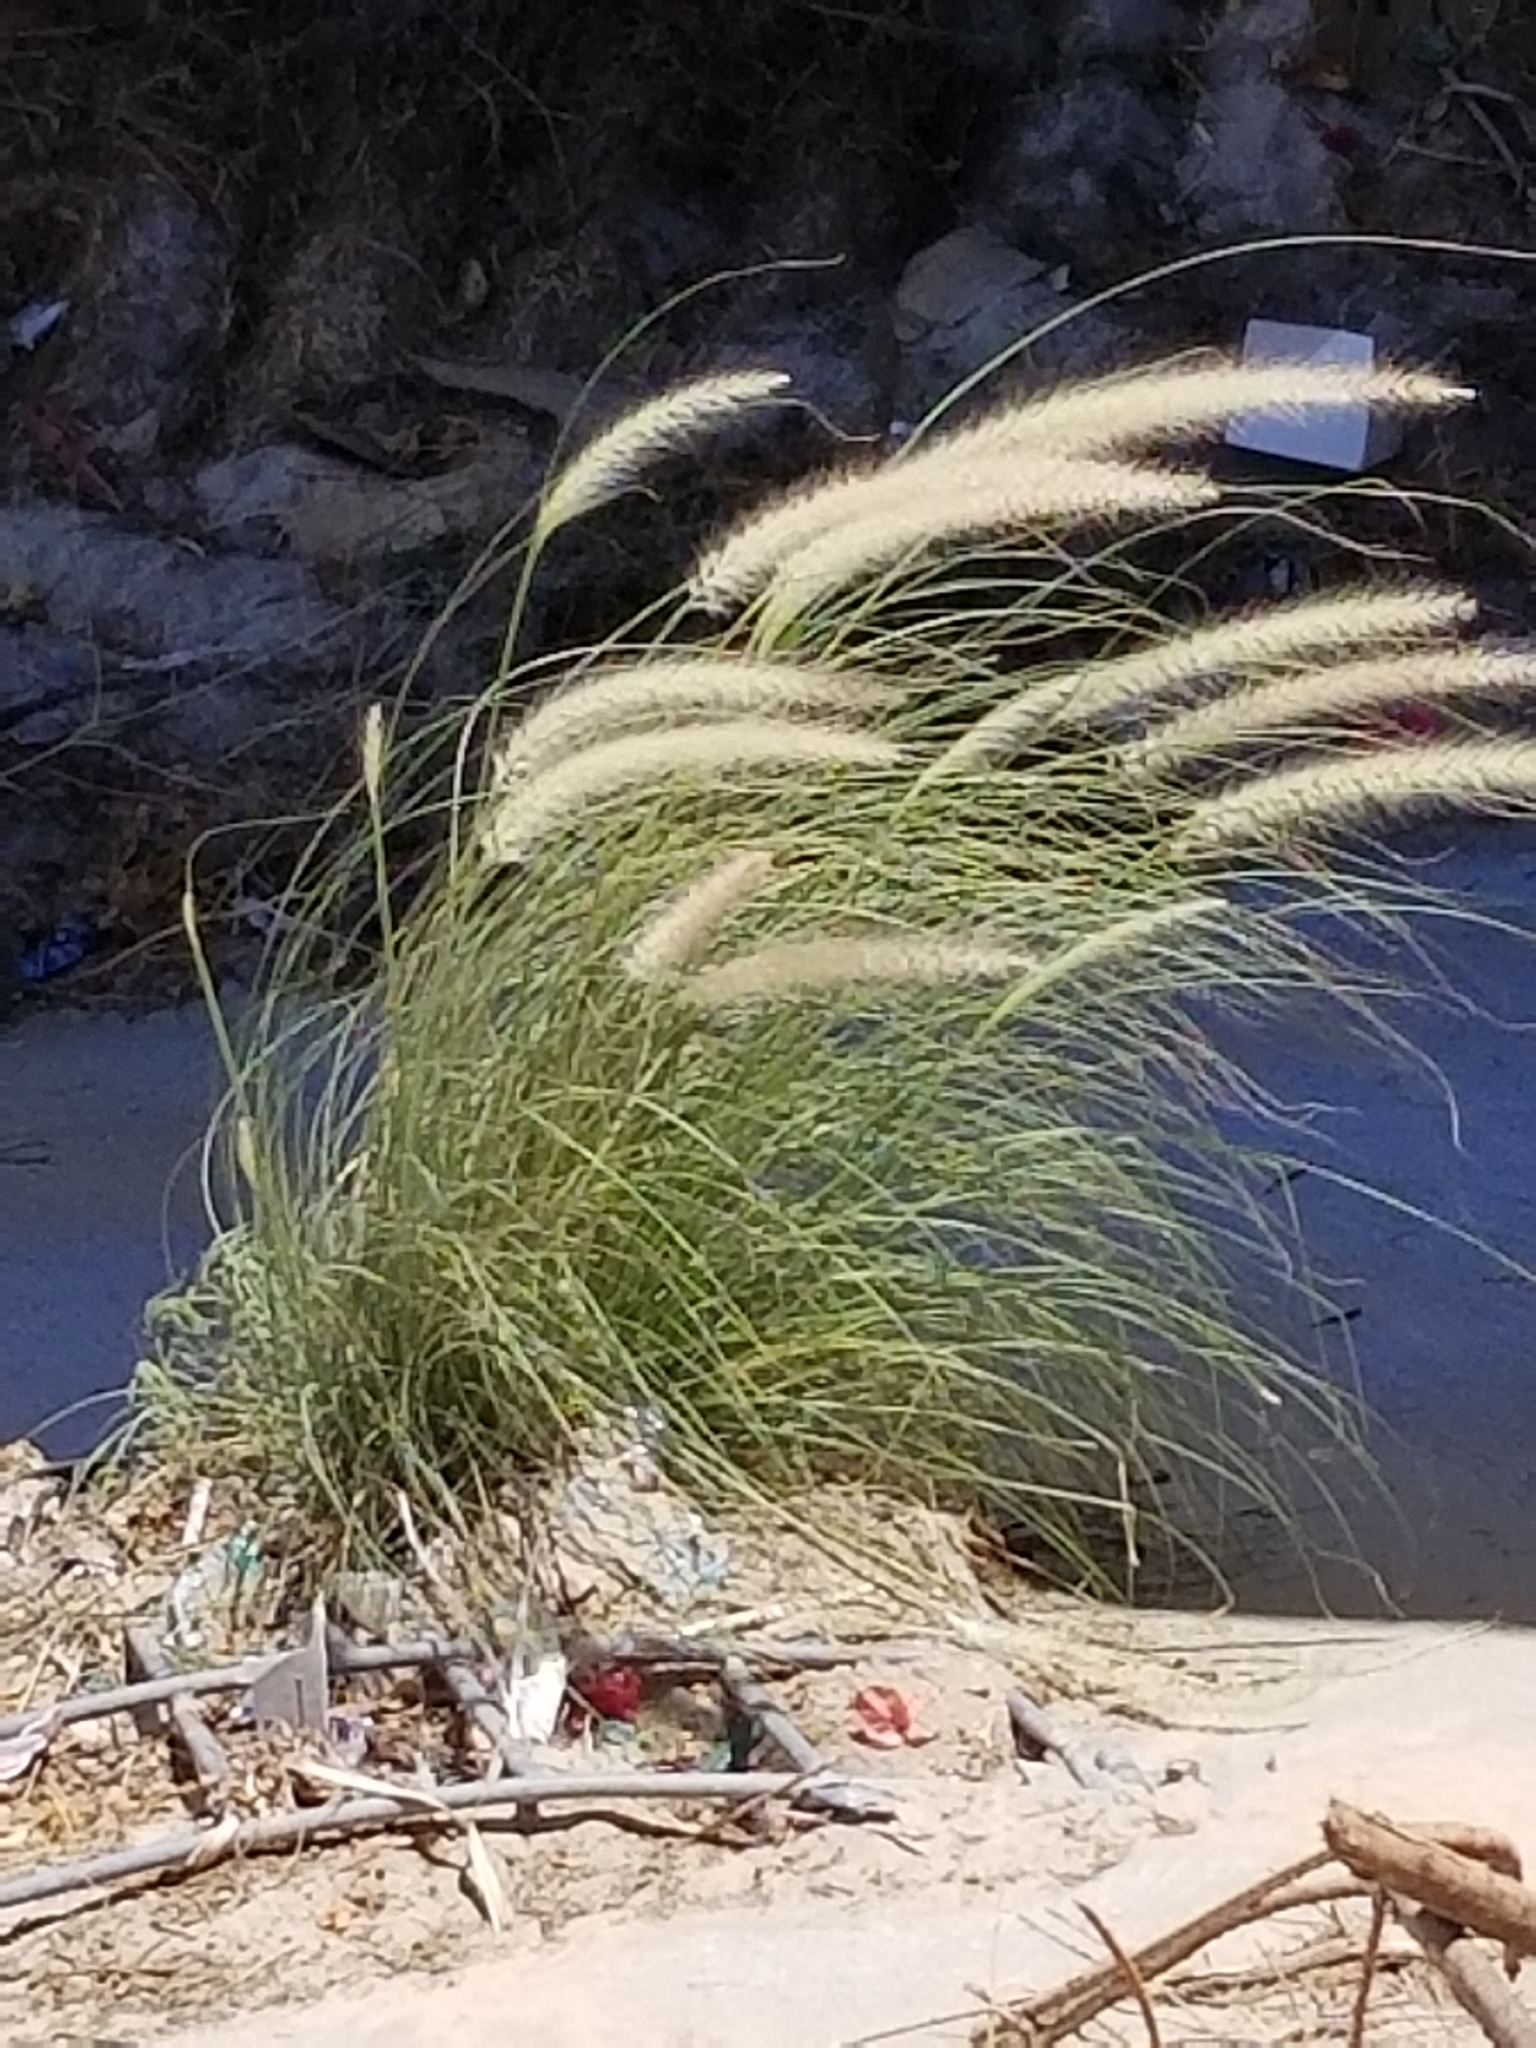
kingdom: Plantae
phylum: Tracheophyta
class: Liliopsida
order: Poales
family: Poaceae
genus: Cenchrus
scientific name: Cenchrus setaceus
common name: Crimson fountaingrass
